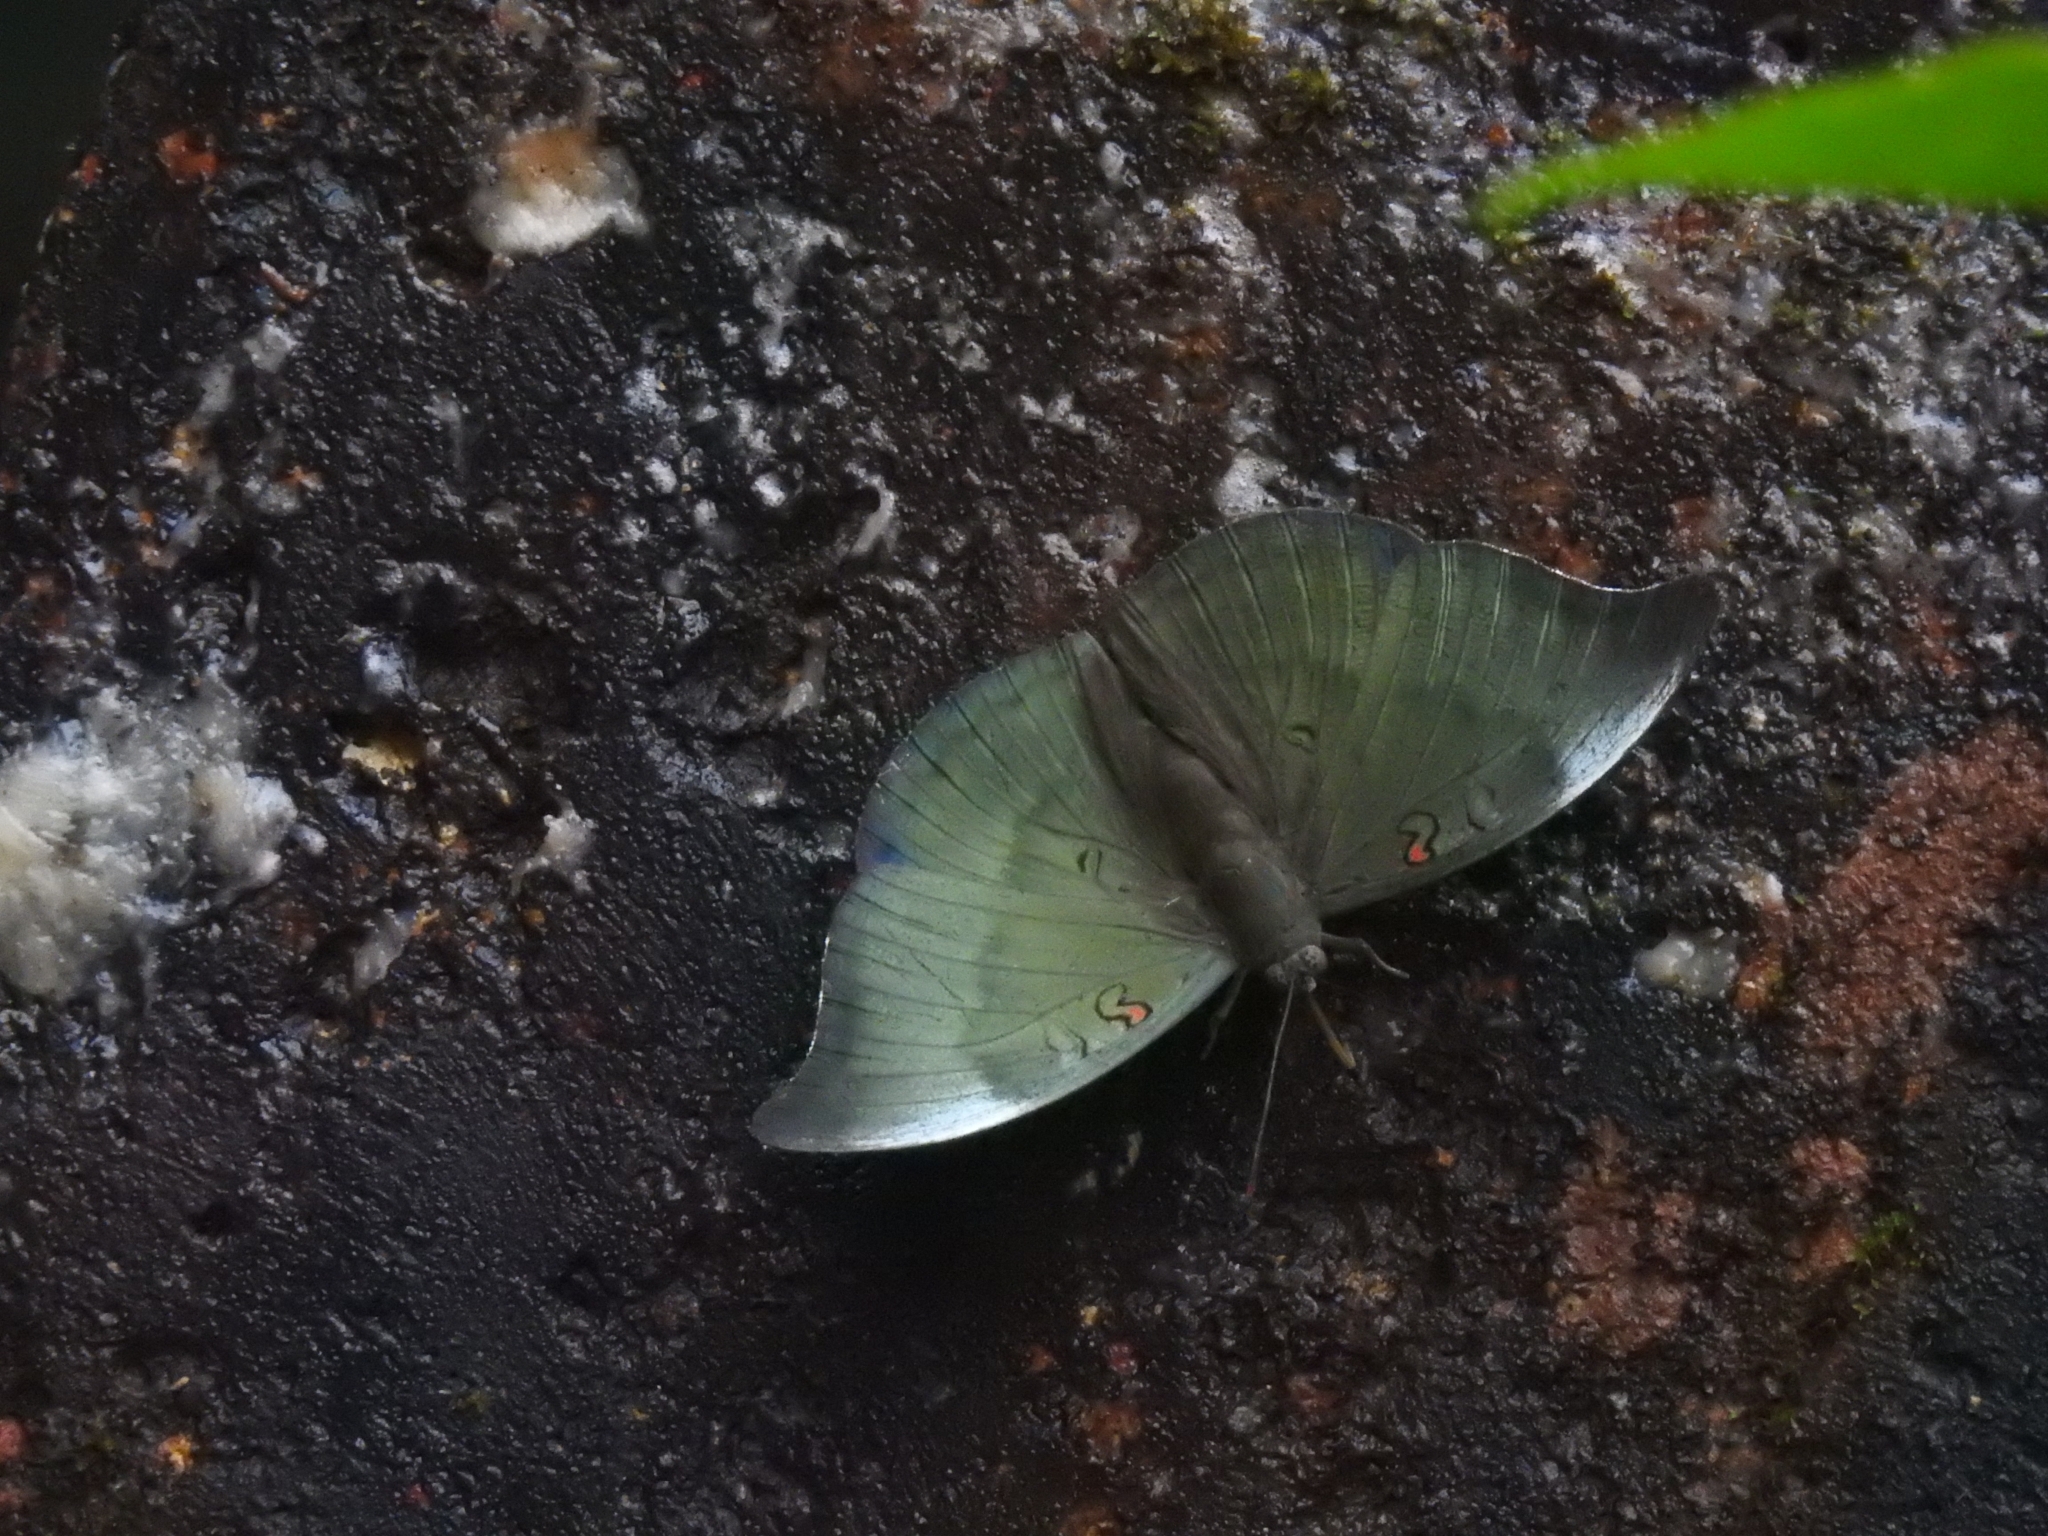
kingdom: Animalia
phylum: Arthropoda
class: Insecta
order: Lepidoptera
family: Nymphalidae
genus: Euthalia
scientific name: Euthalia Dophla evelina
